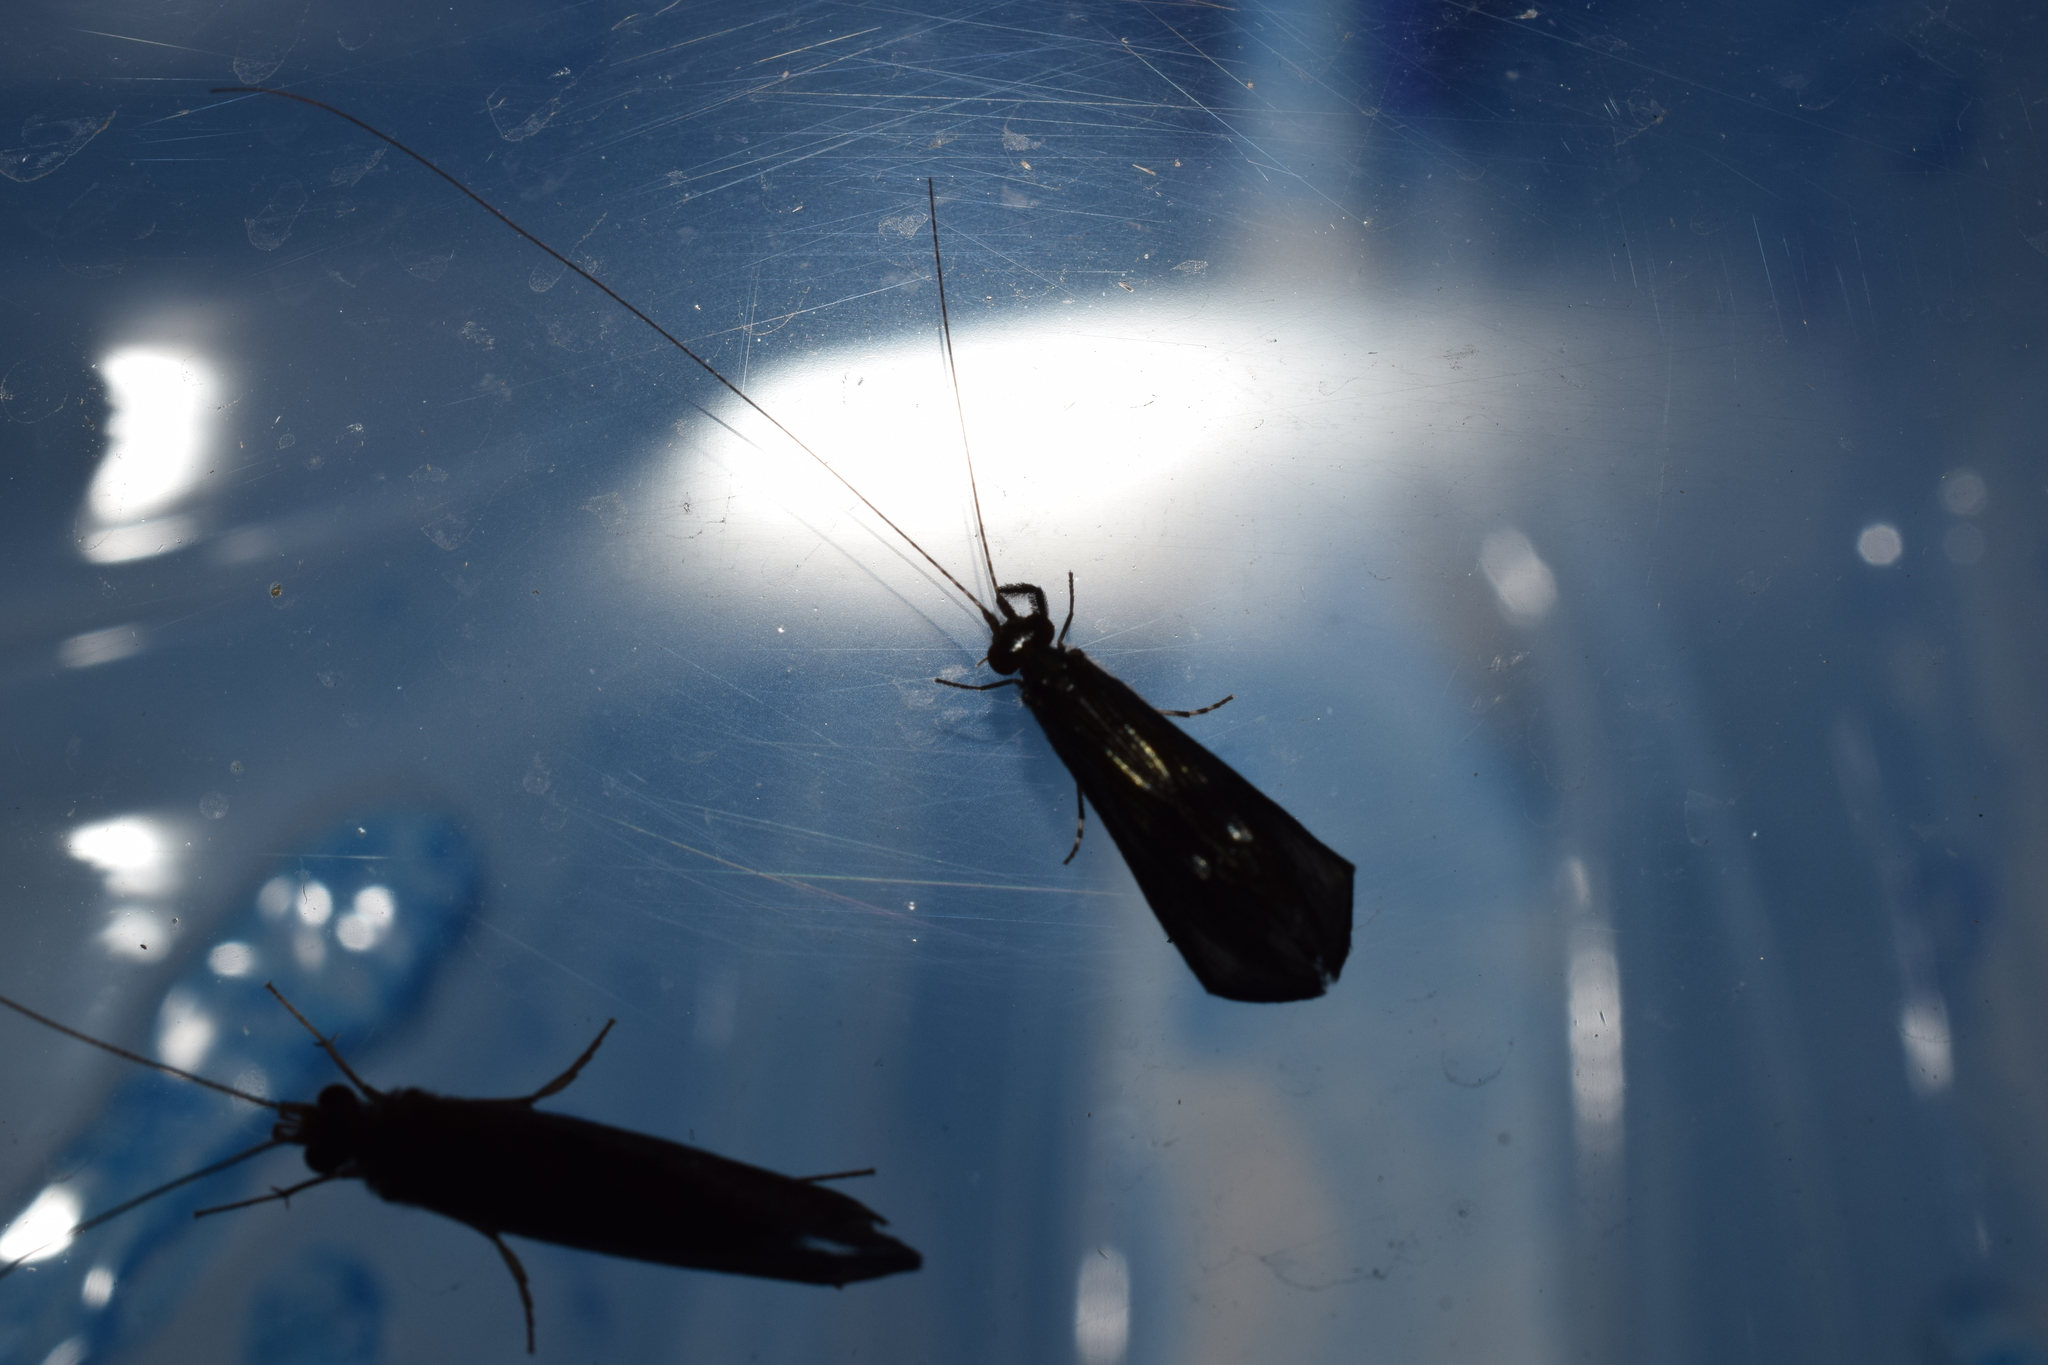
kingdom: Animalia
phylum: Arthropoda
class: Insecta
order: Trichoptera
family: Leptoceridae
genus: Mystacides
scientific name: Mystacides azureus
